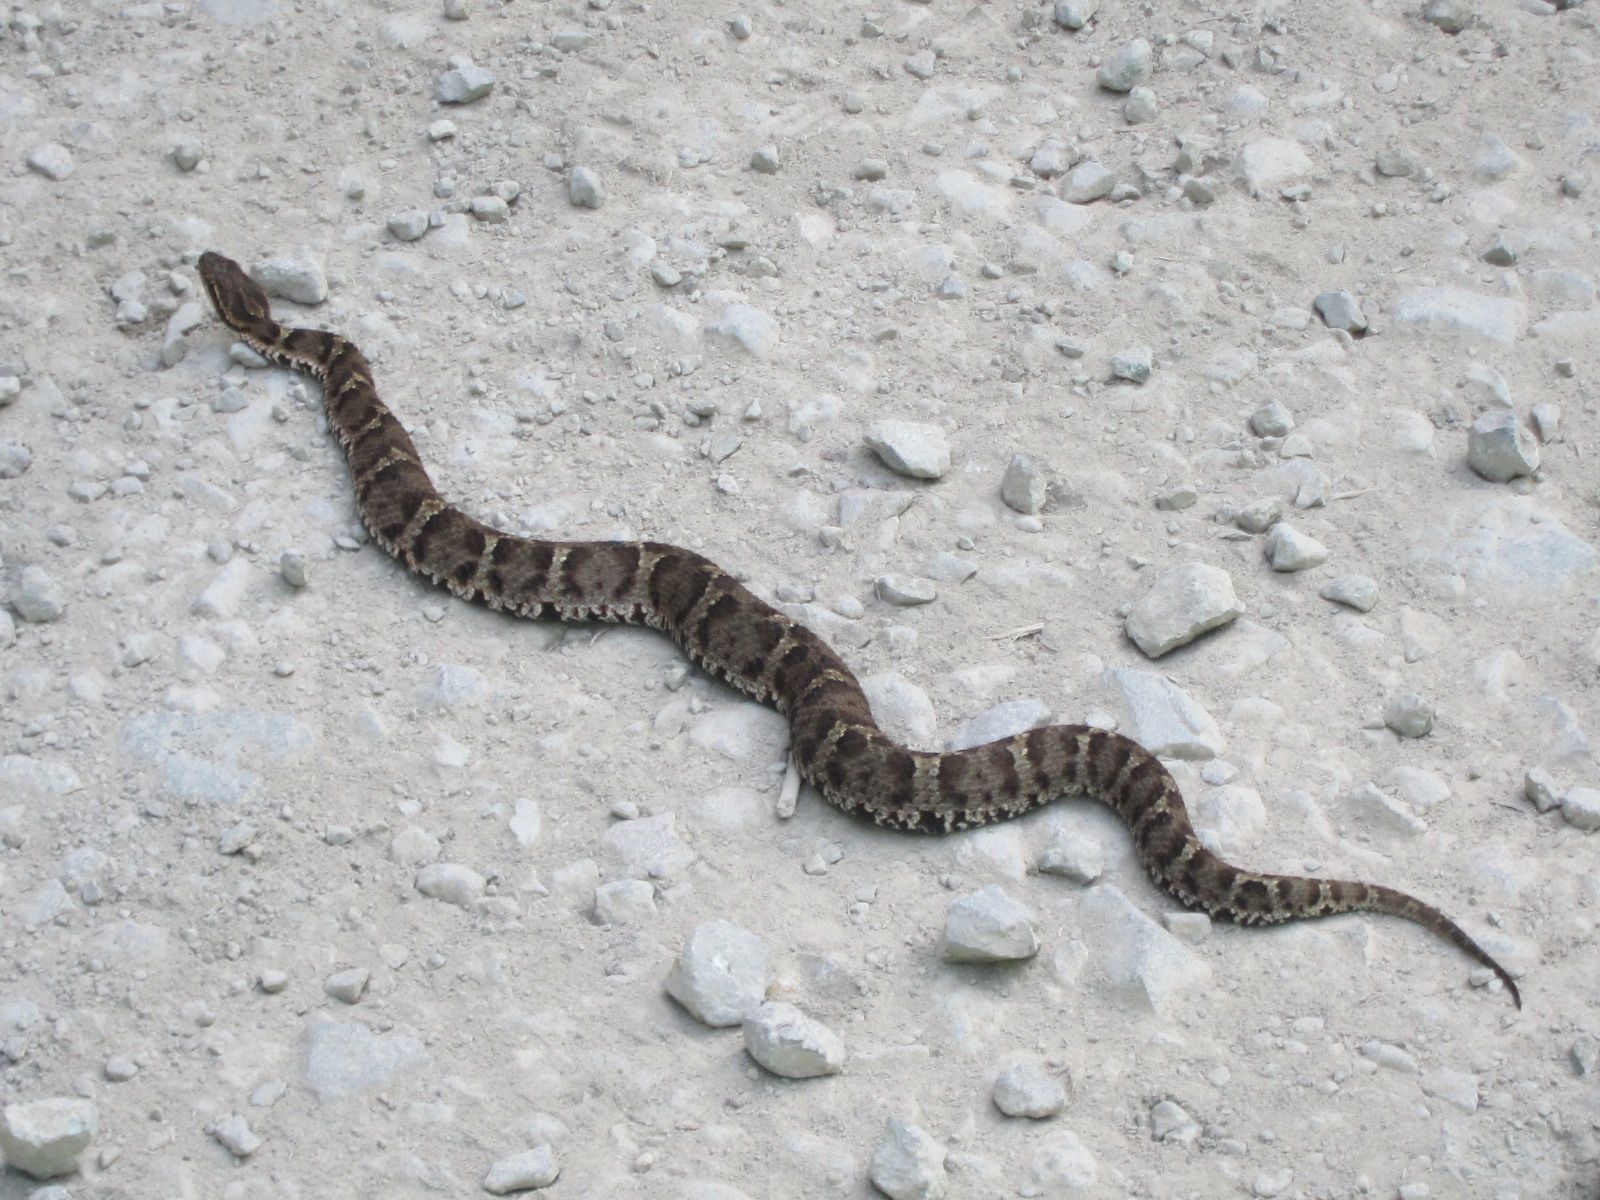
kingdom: Animalia
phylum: Chordata
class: Squamata
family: Viperidae
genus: Gloydius
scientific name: Gloydius blomhoffii
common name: Mamushi
